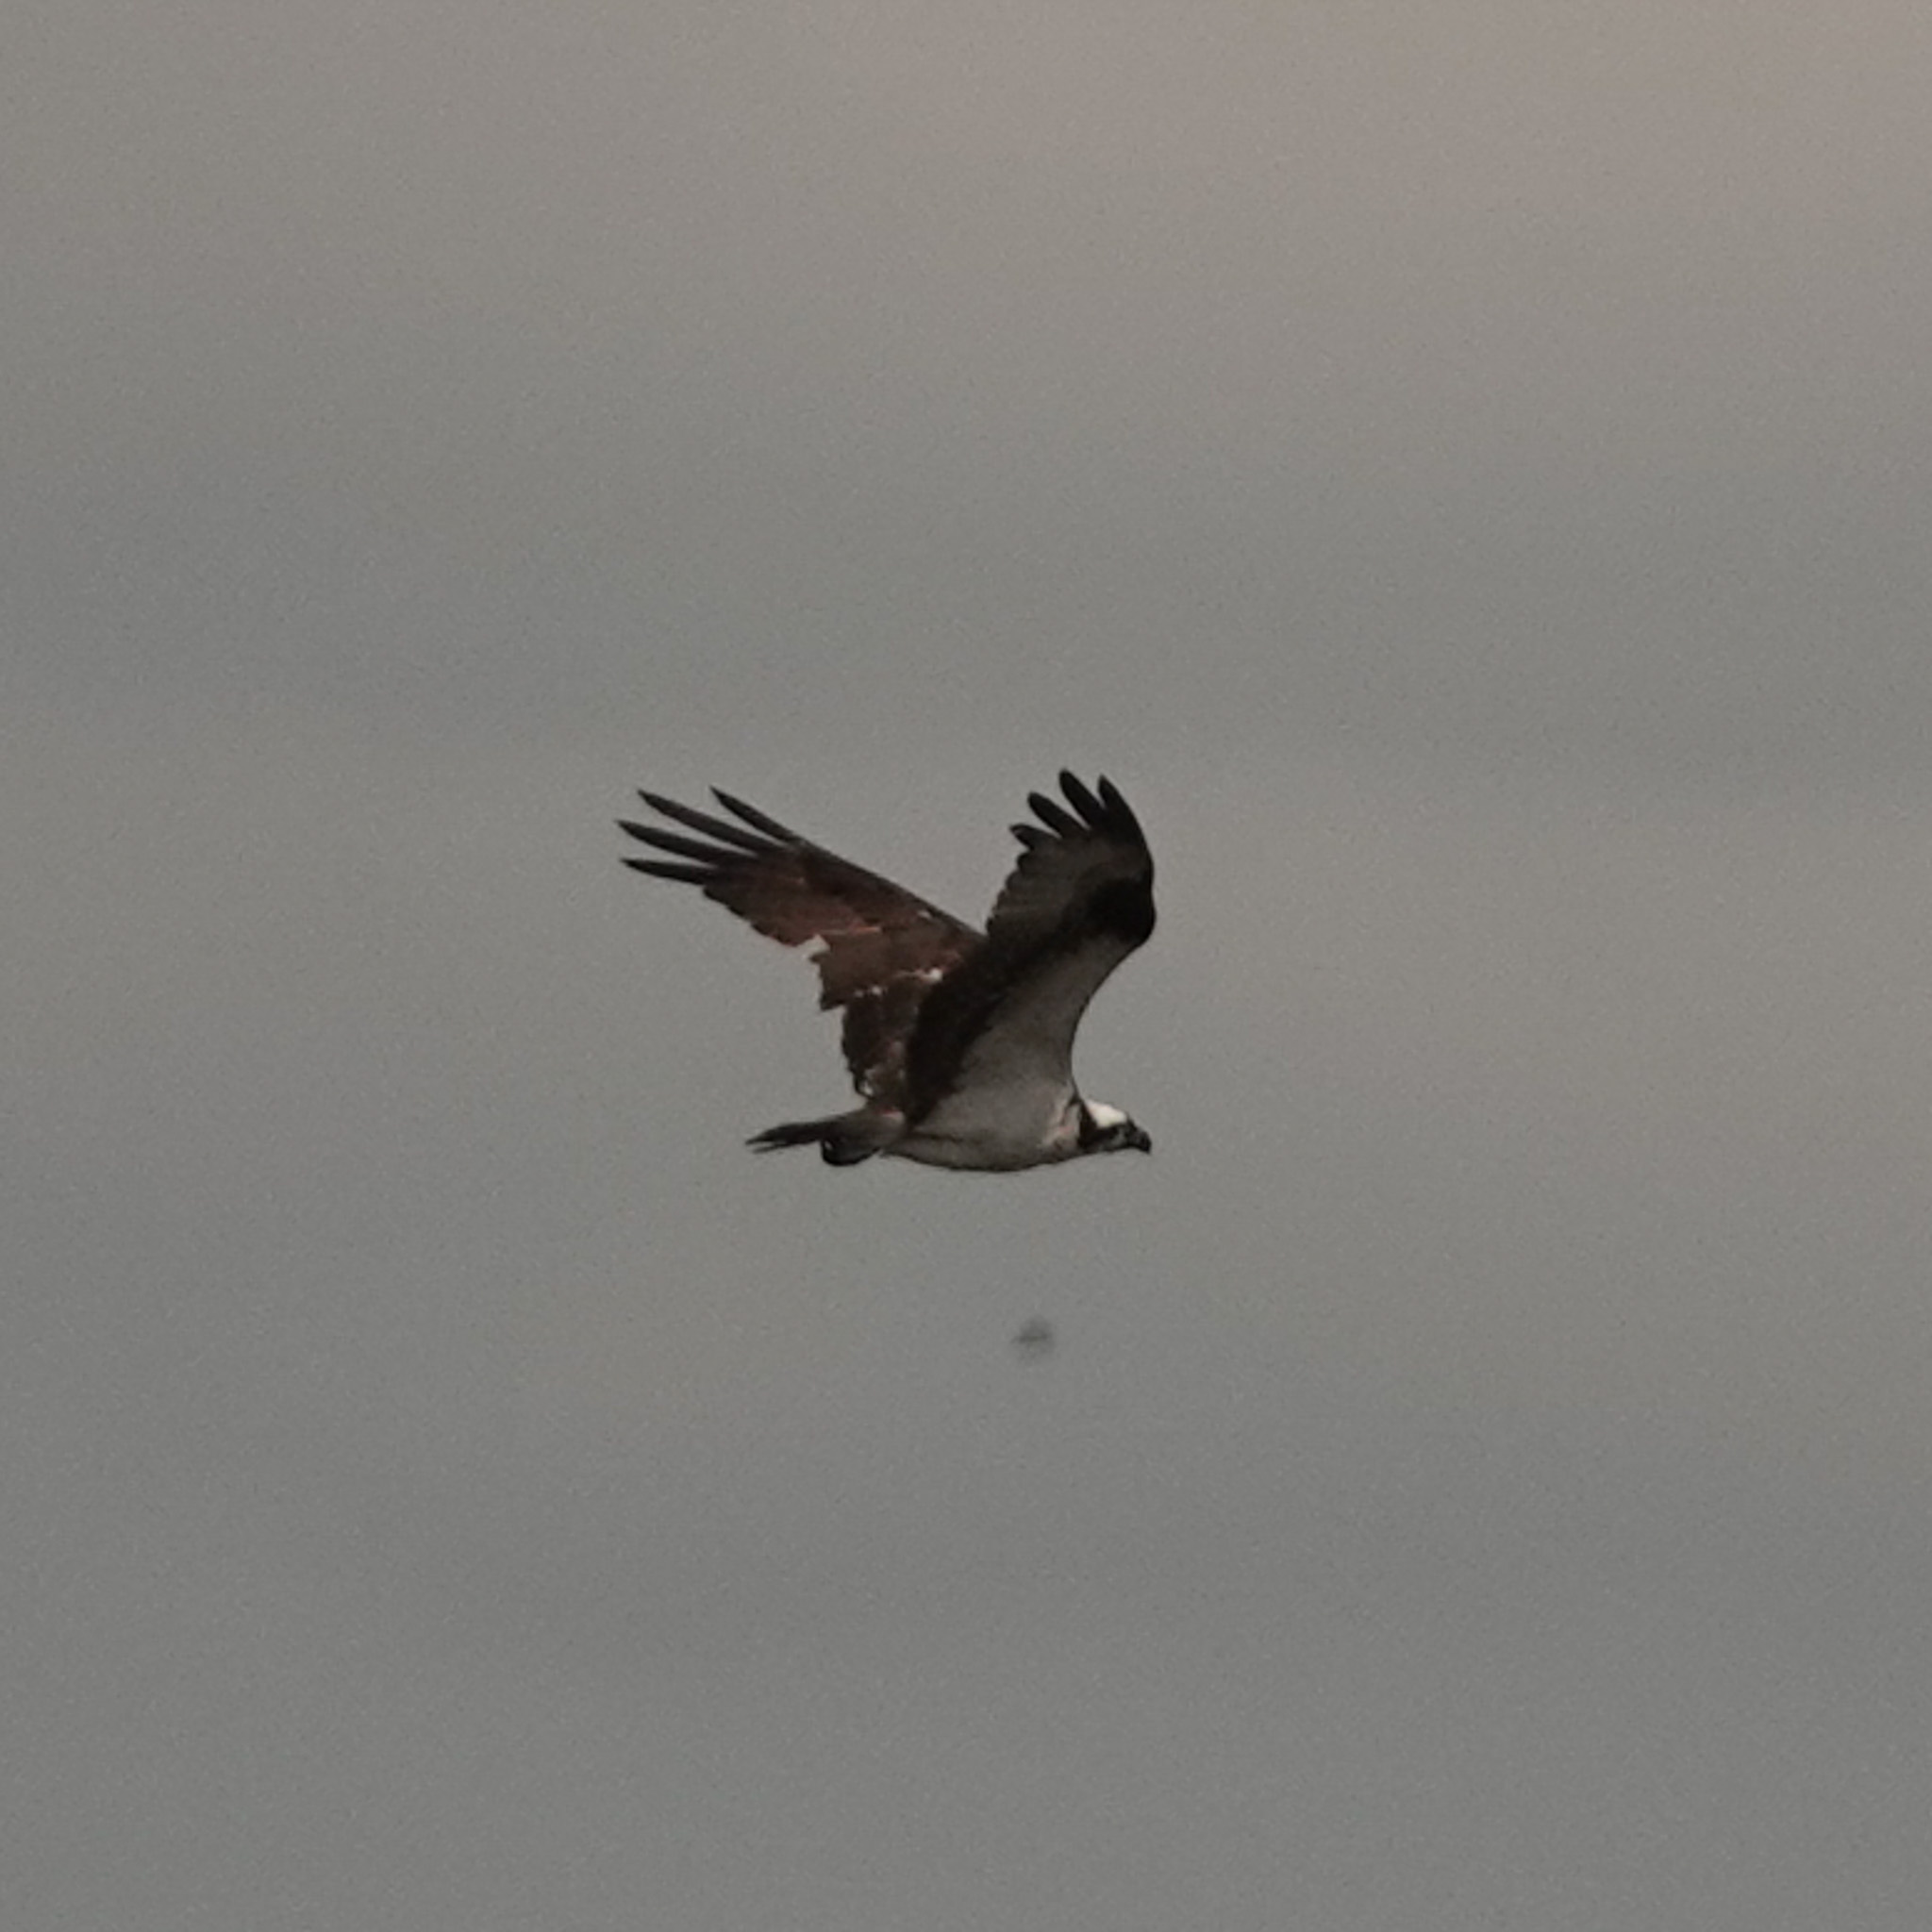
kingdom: Animalia
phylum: Chordata
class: Aves
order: Accipitriformes
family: Pandionidae
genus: Pandion
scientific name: Pandion haliaetus
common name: Osprey
